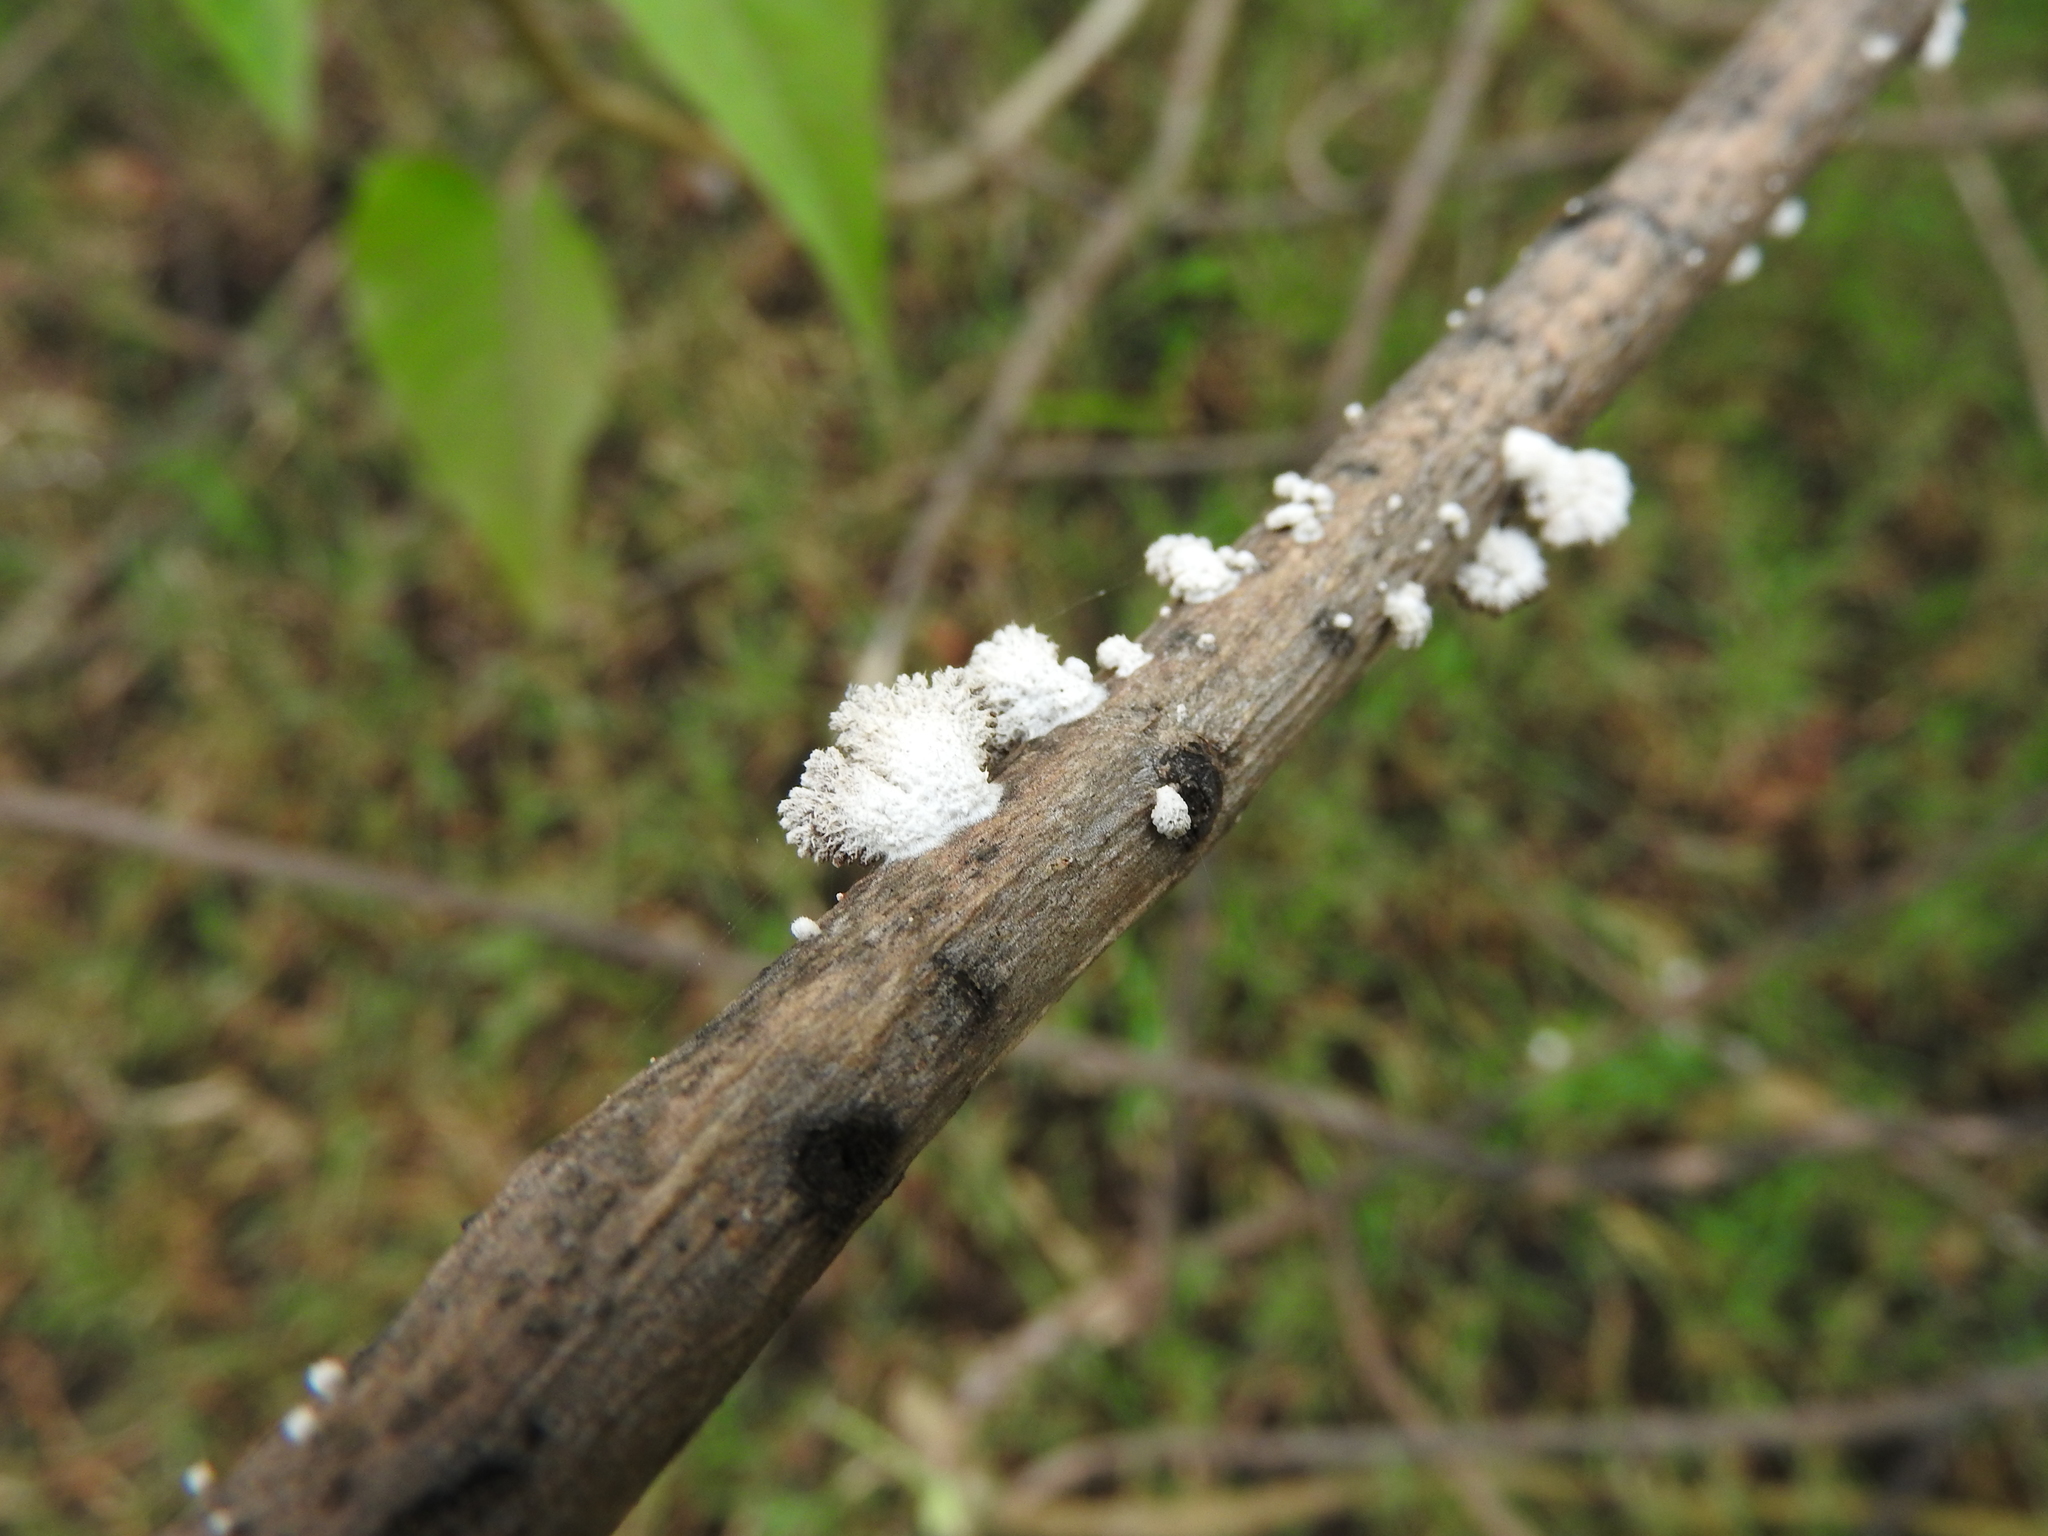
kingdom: Fungi
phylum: Basidiomycota
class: Agaricomycetes
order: Agaricales
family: Schizophyllaceae
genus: Schizophyllum
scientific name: Schizophyllum commune
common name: Common porecrust
